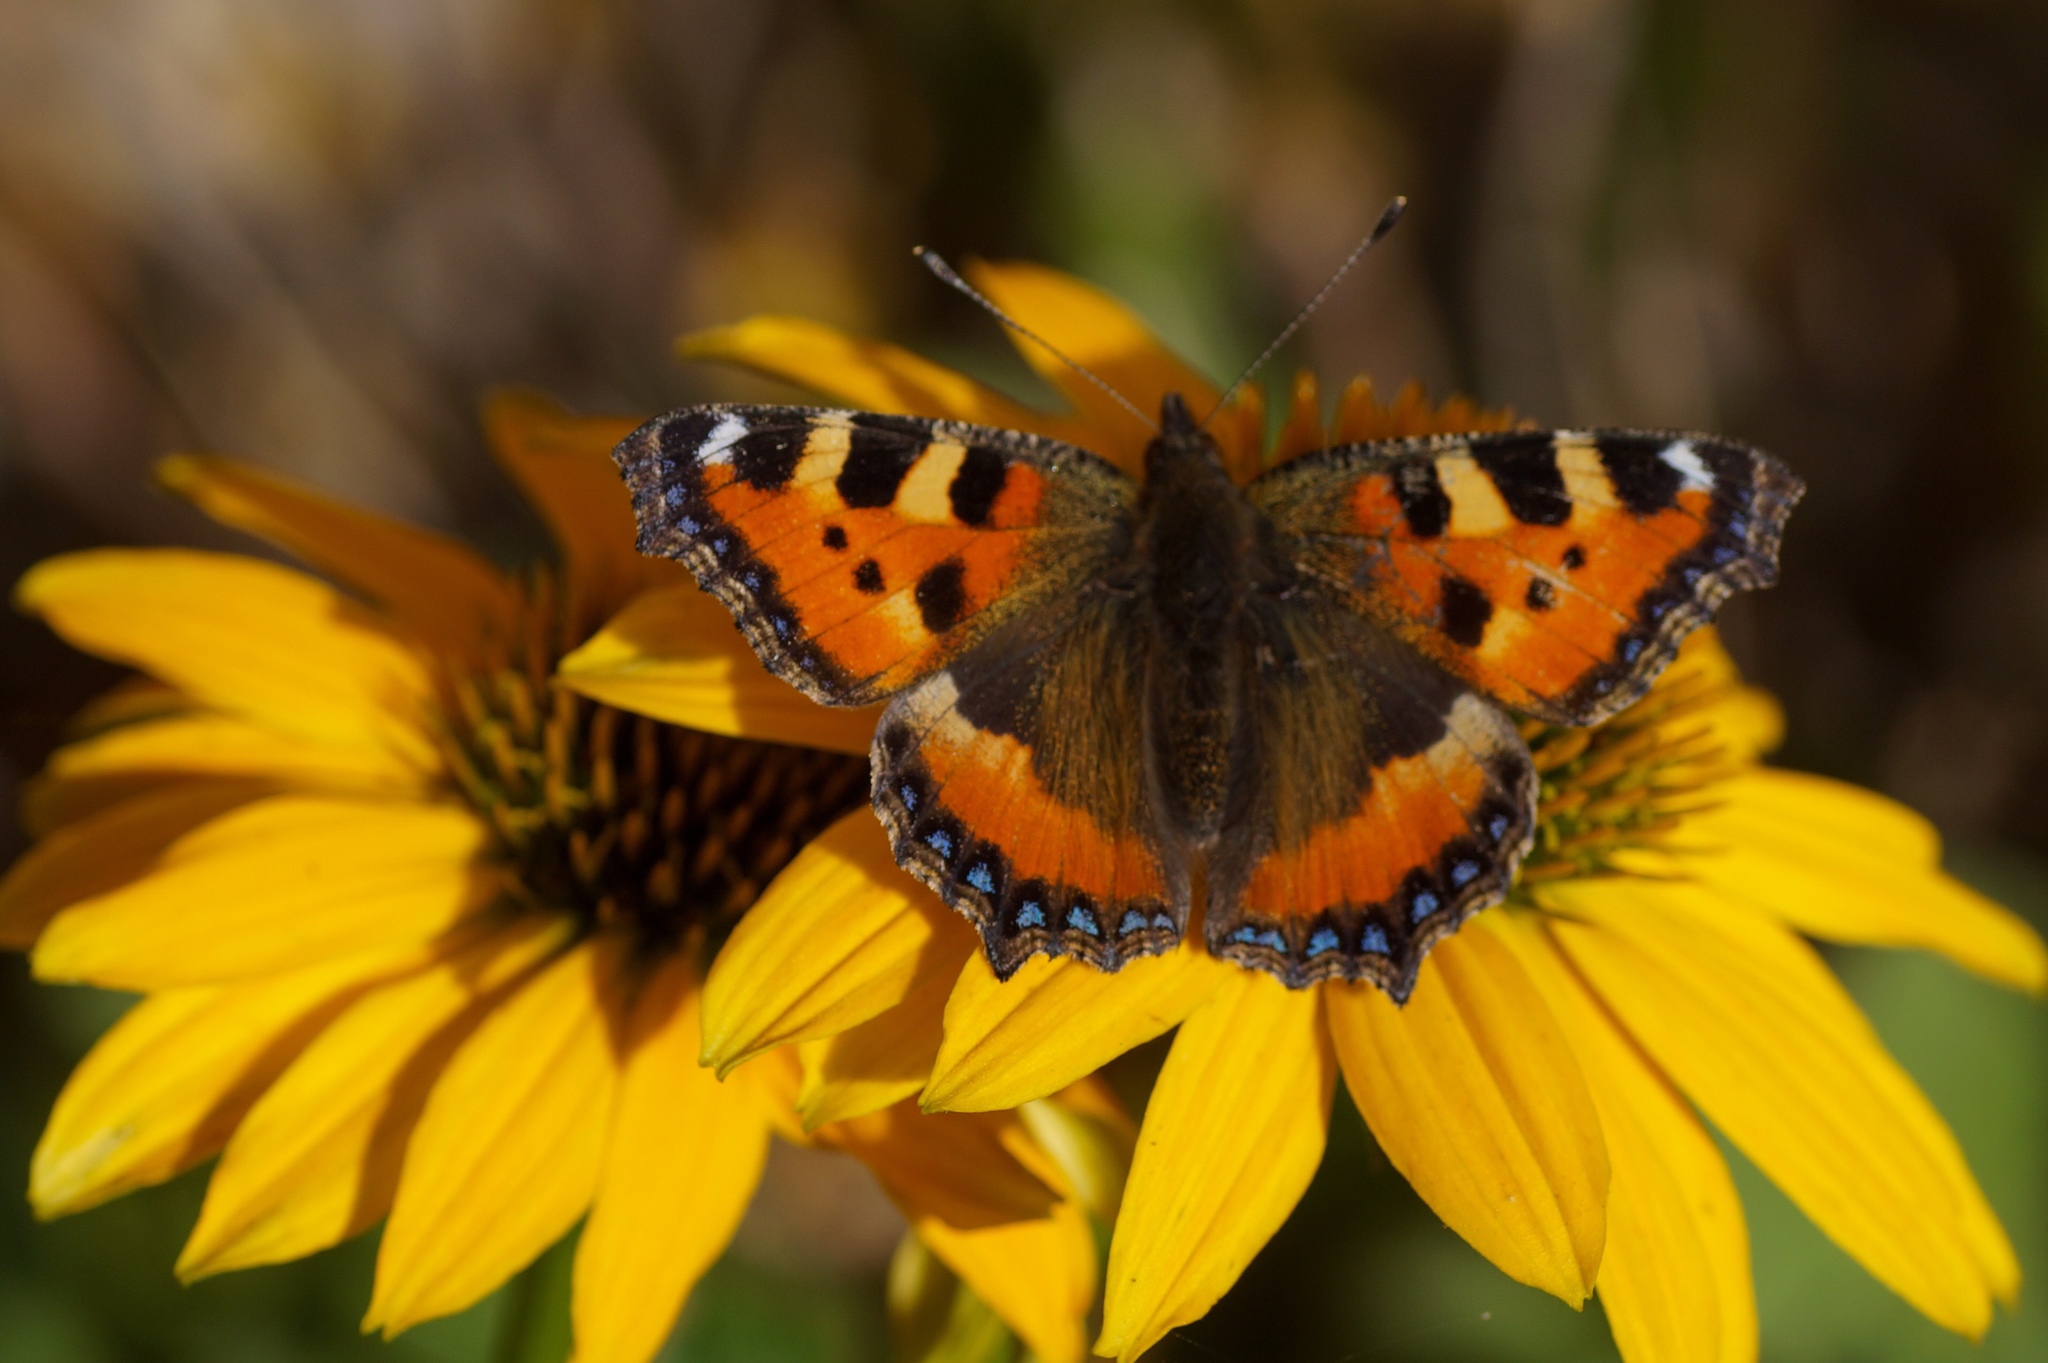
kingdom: Animalia
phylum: Arthropoda
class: Insecta
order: Lepidoptera
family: Nymphalidae
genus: Aglais
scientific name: Aglais urticae
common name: Small tortoiseshell
